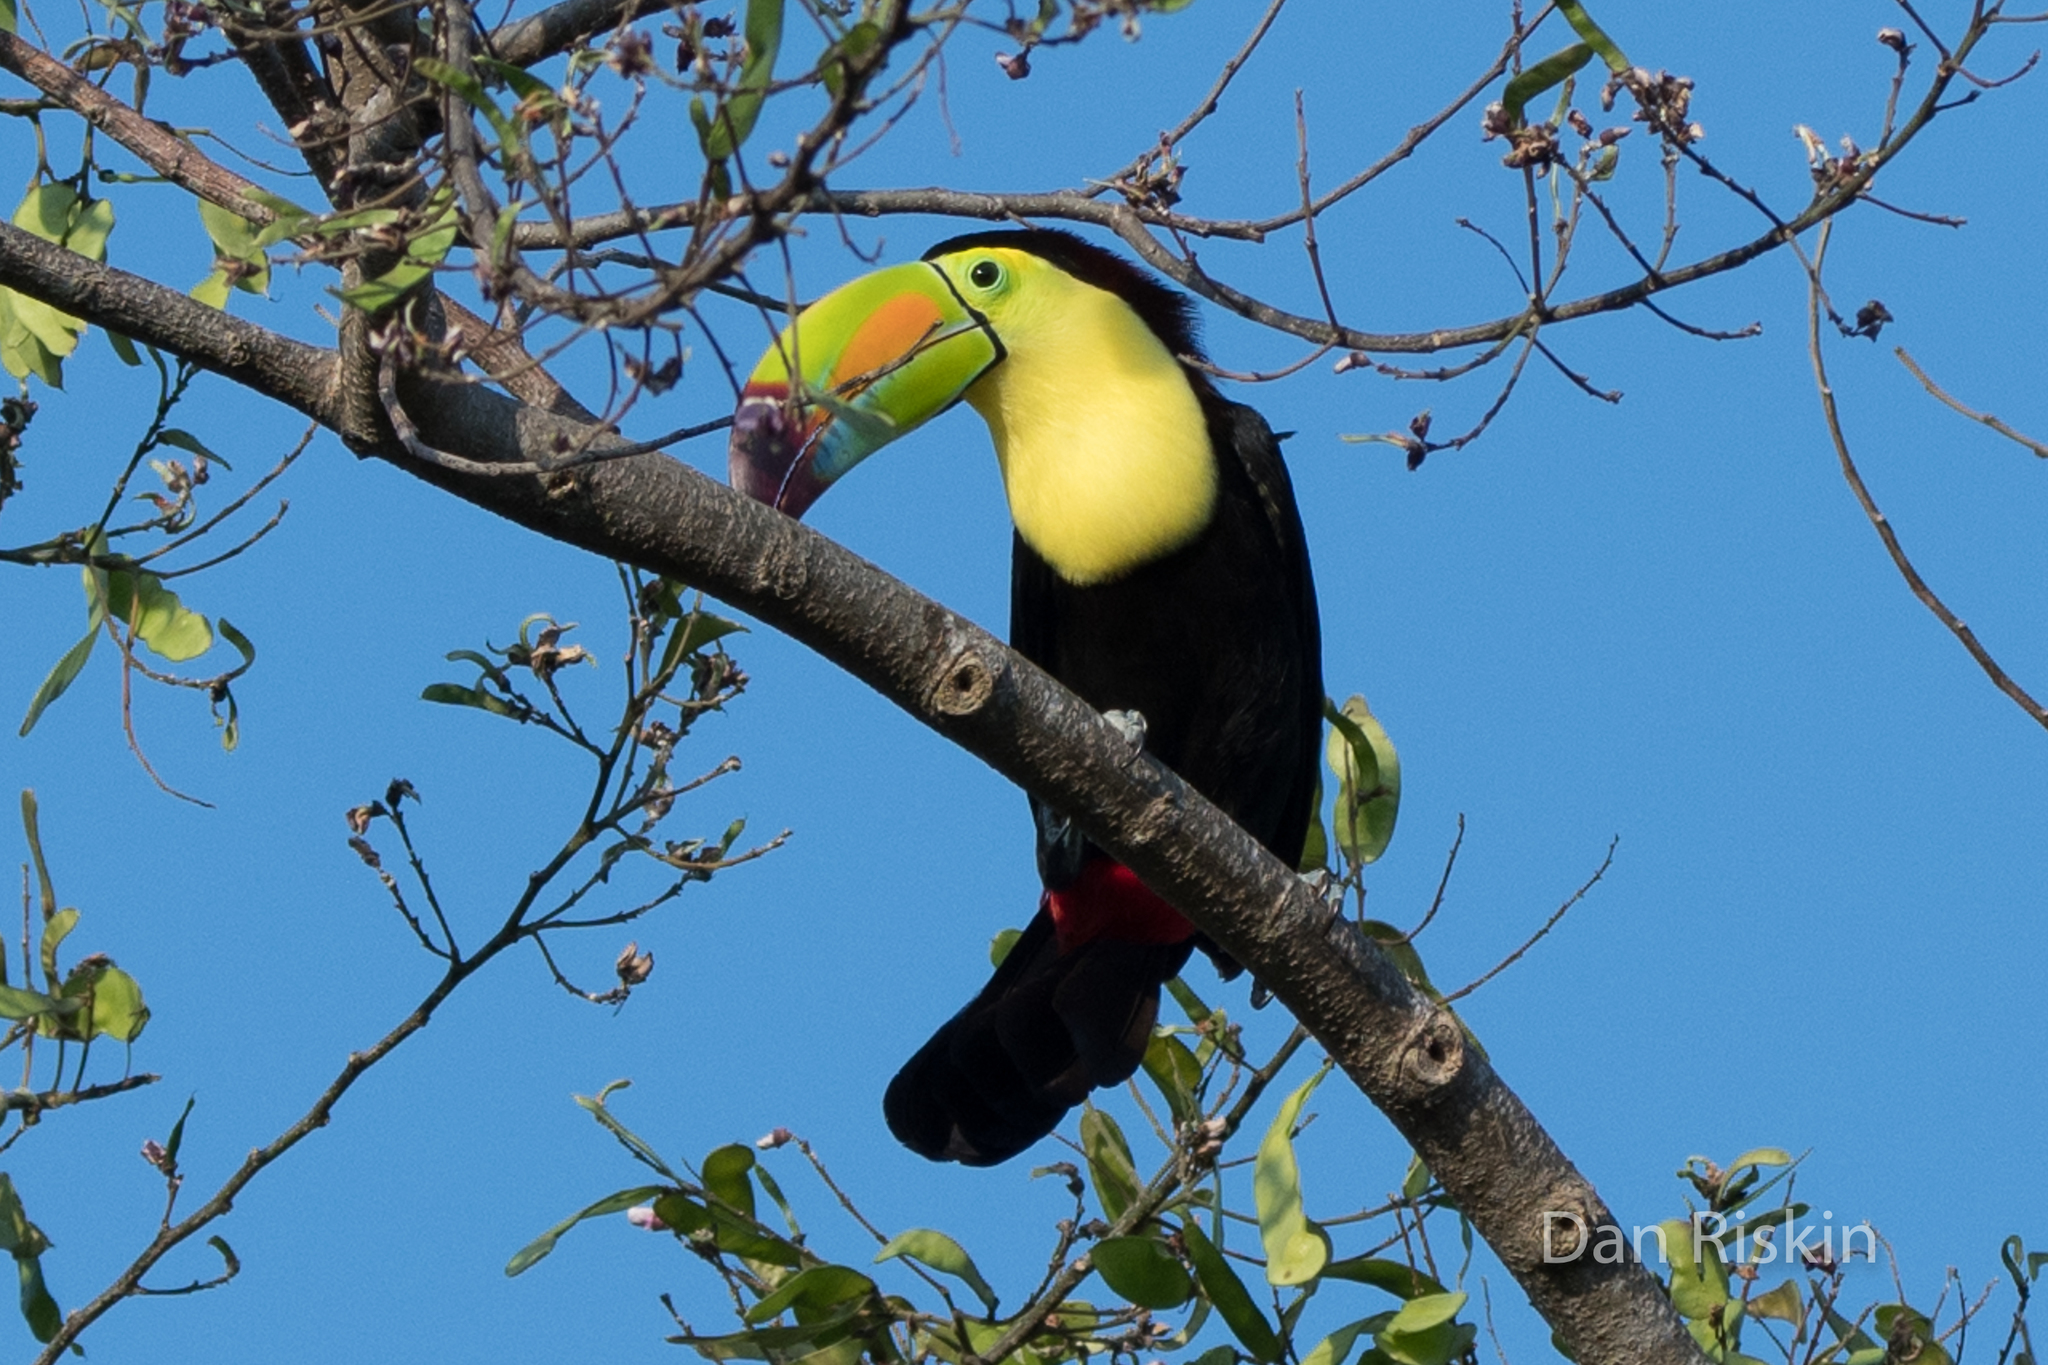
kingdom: Animalia
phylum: Chordata
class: Aves
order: Piciformes
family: Ramphastidae
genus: Ramphastos
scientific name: Ramphastos sulfuratus
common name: Keel-billed toucan
